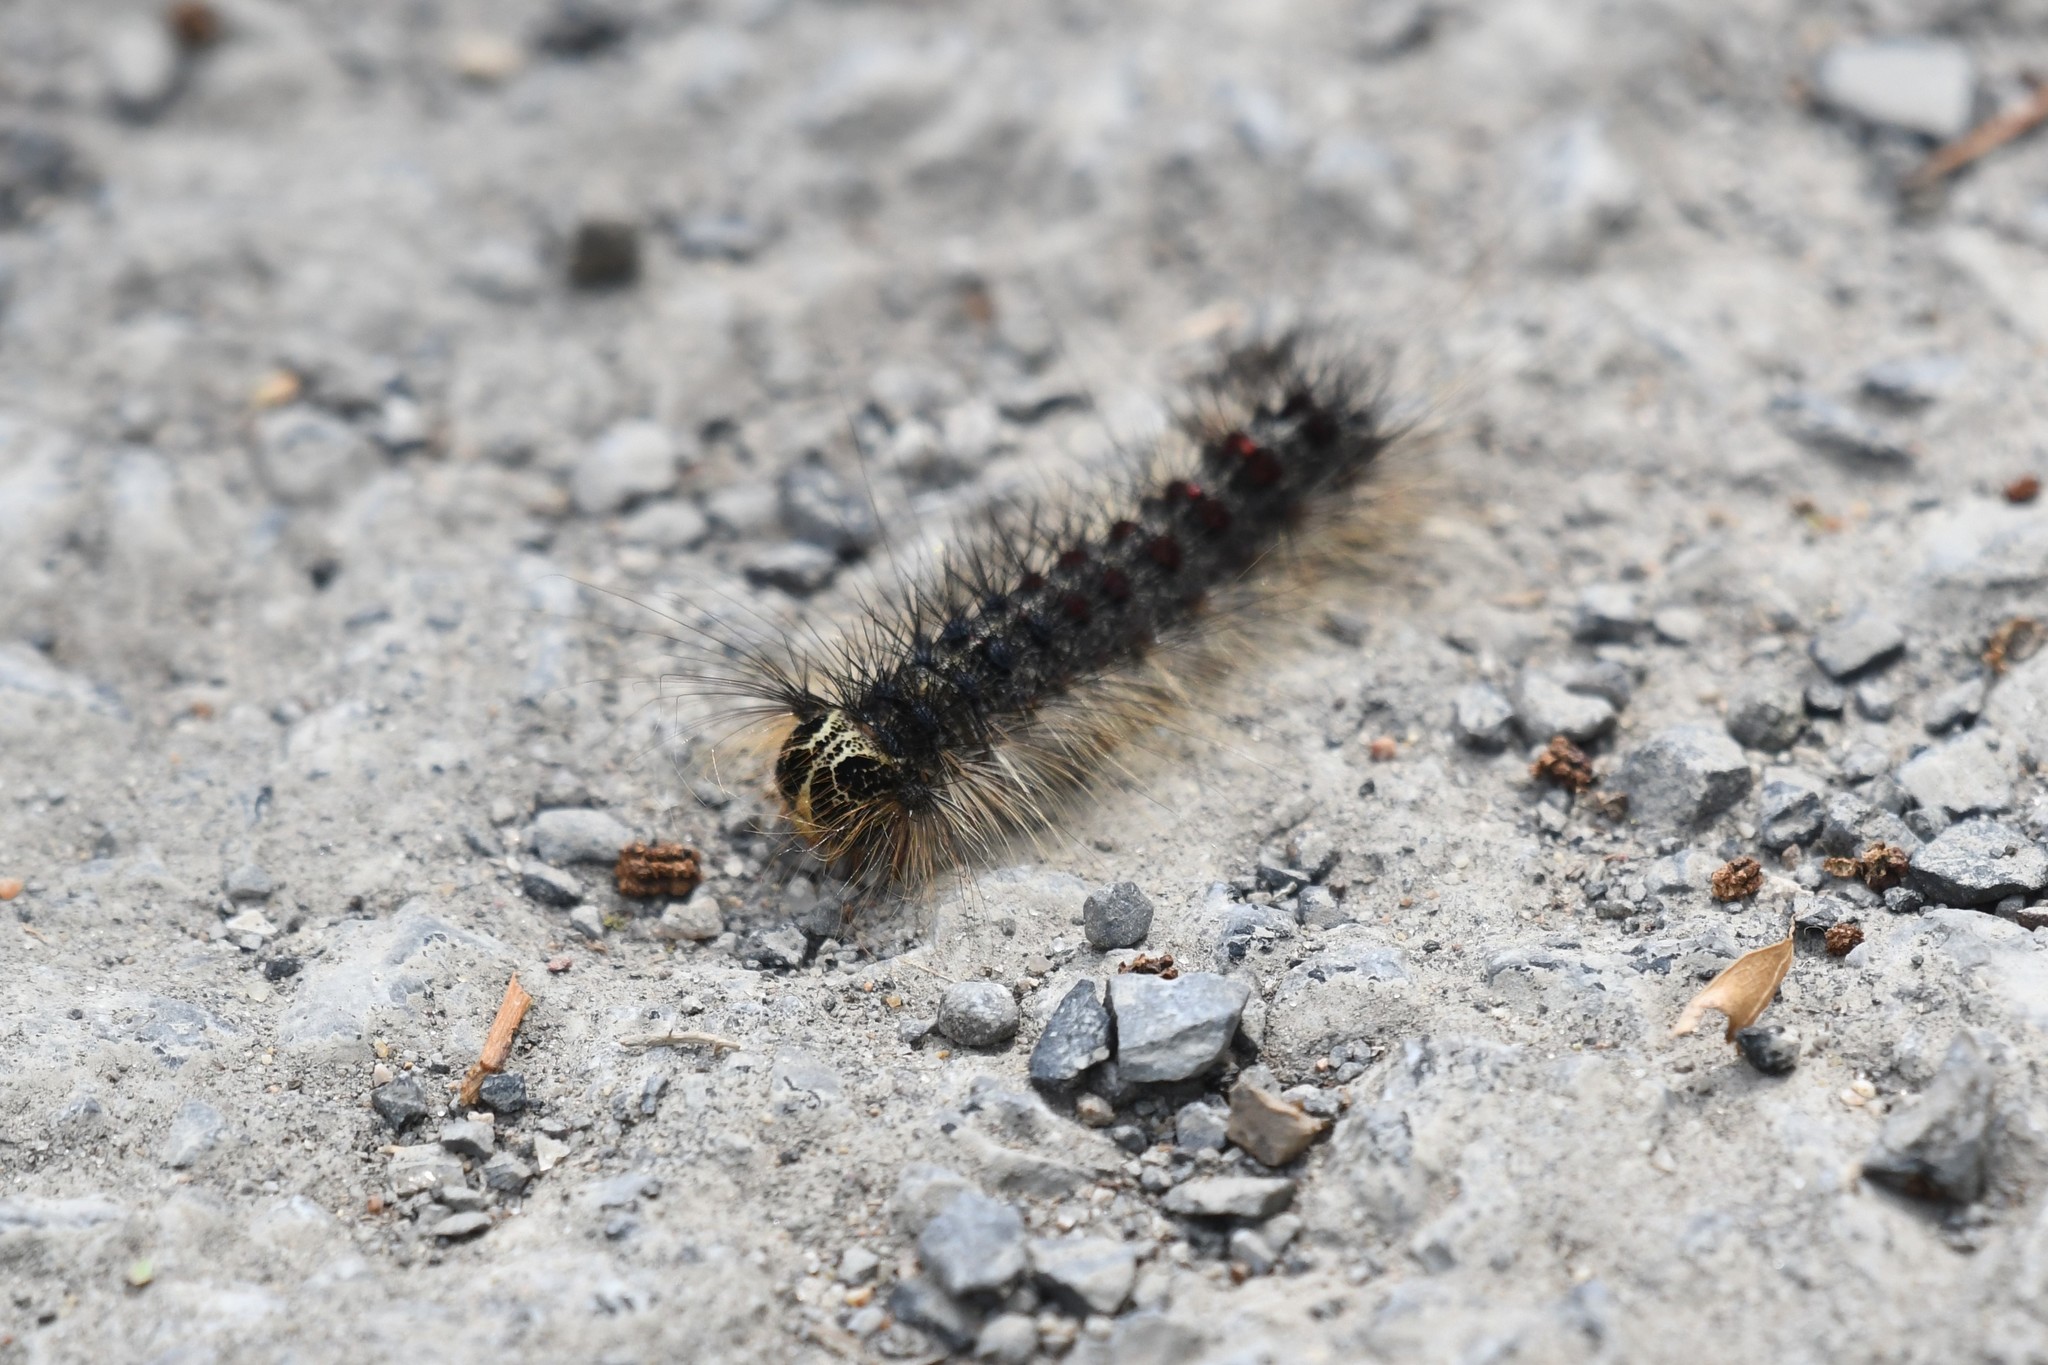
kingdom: Animalia
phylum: Arthropoda
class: Insecta
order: Lepidoptera
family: Erebidae
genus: Lymantria
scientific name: Lymantria dispar
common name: Gypsy moth
